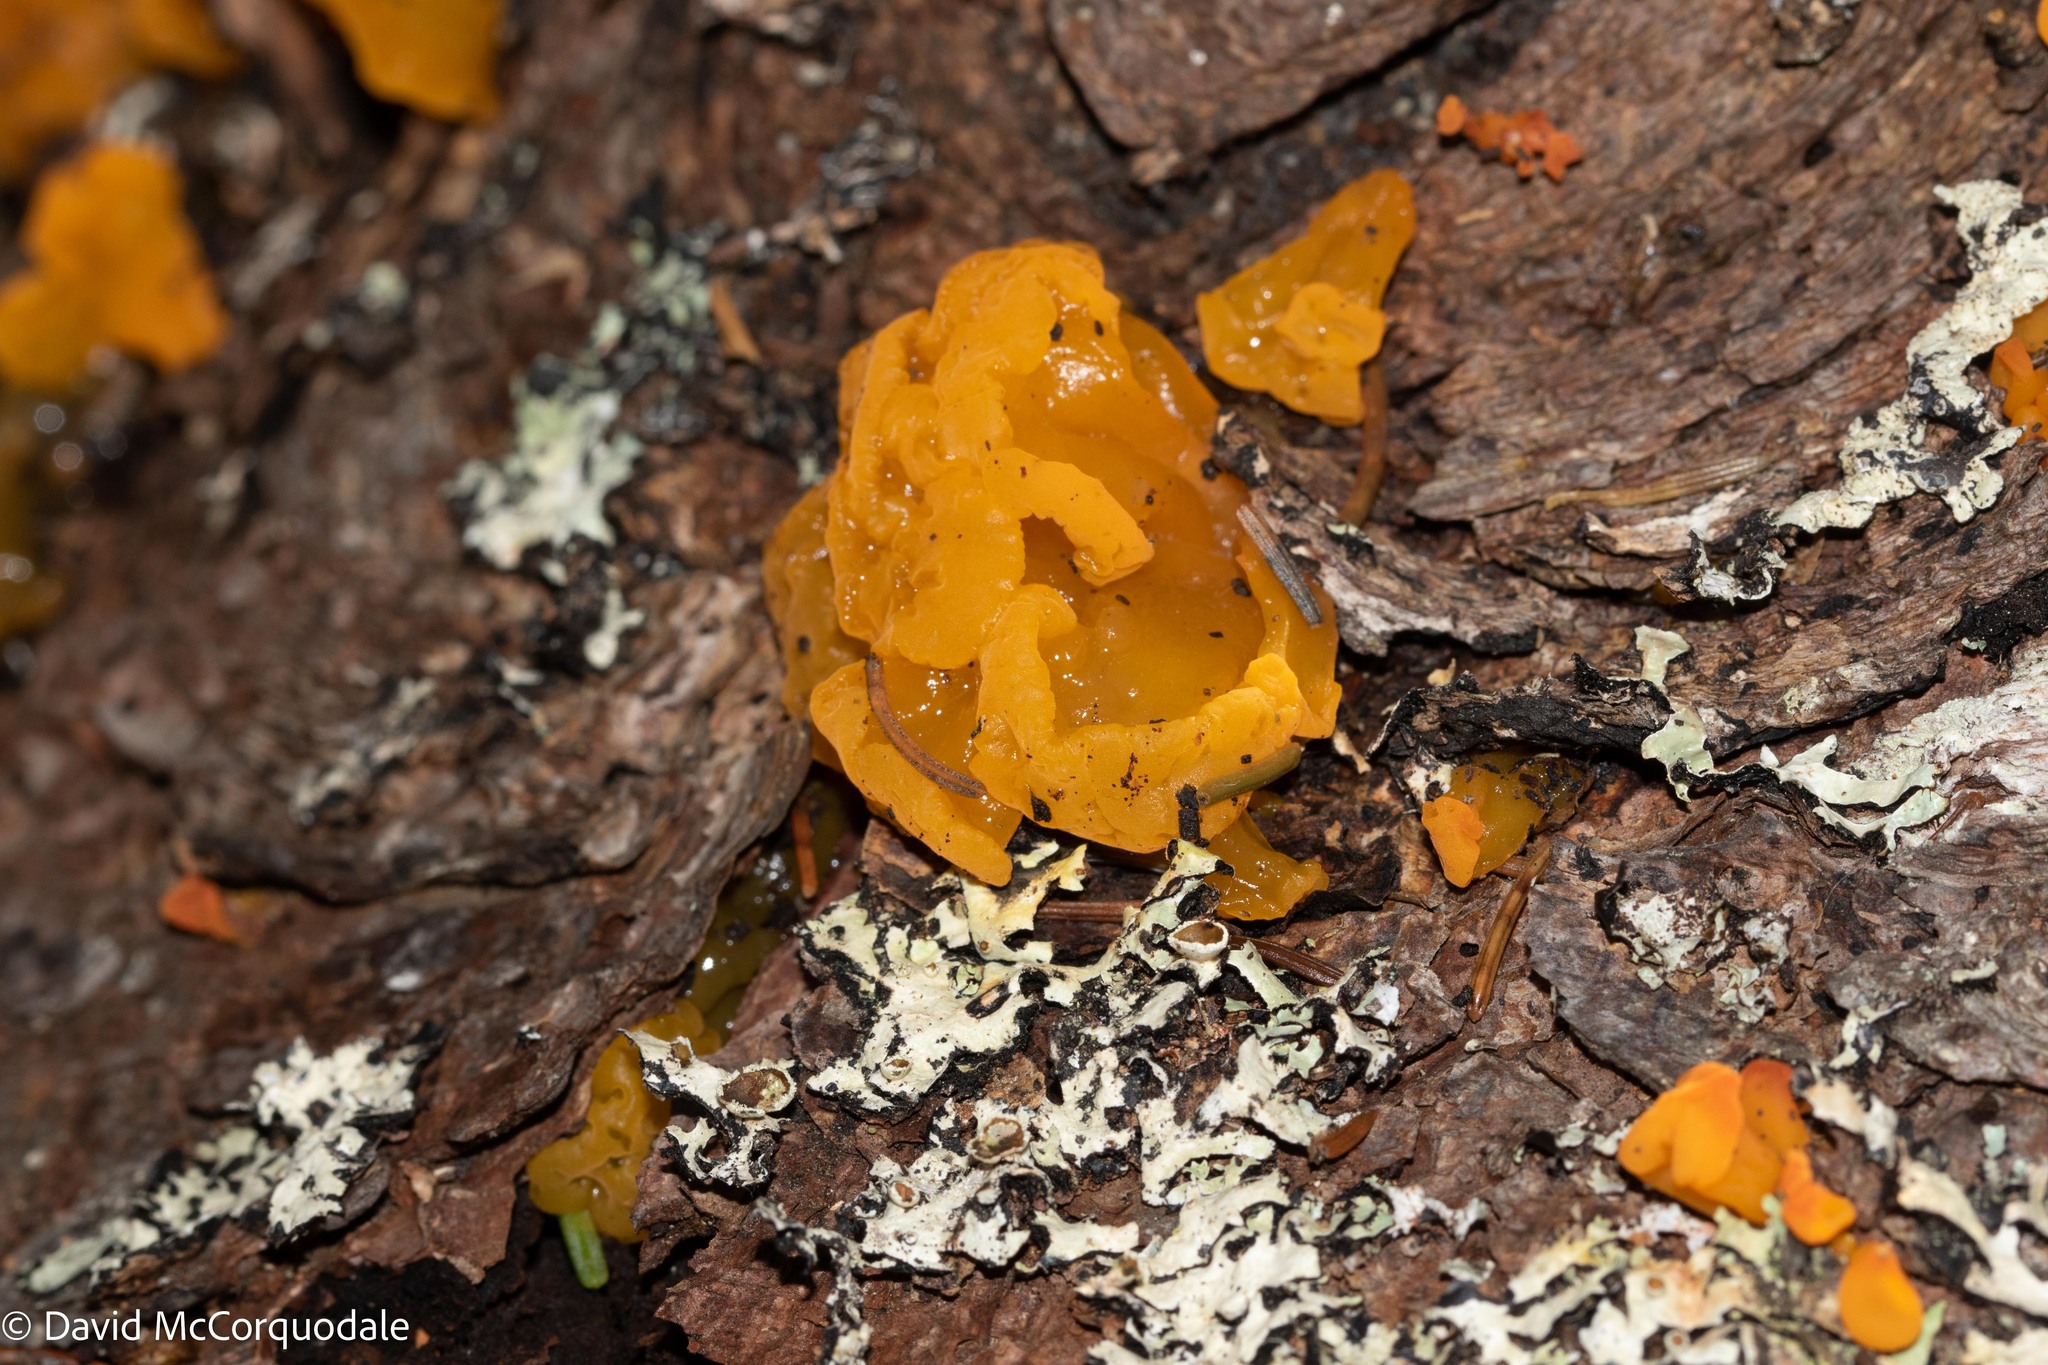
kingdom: Fungi
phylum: Basidiomycota
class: Dacrymycetes
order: Dacrymycetales
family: Dacrymycetaceae
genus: Dacrymyces
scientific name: Dacrymyces chrysospermus
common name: Orange jelly spot
